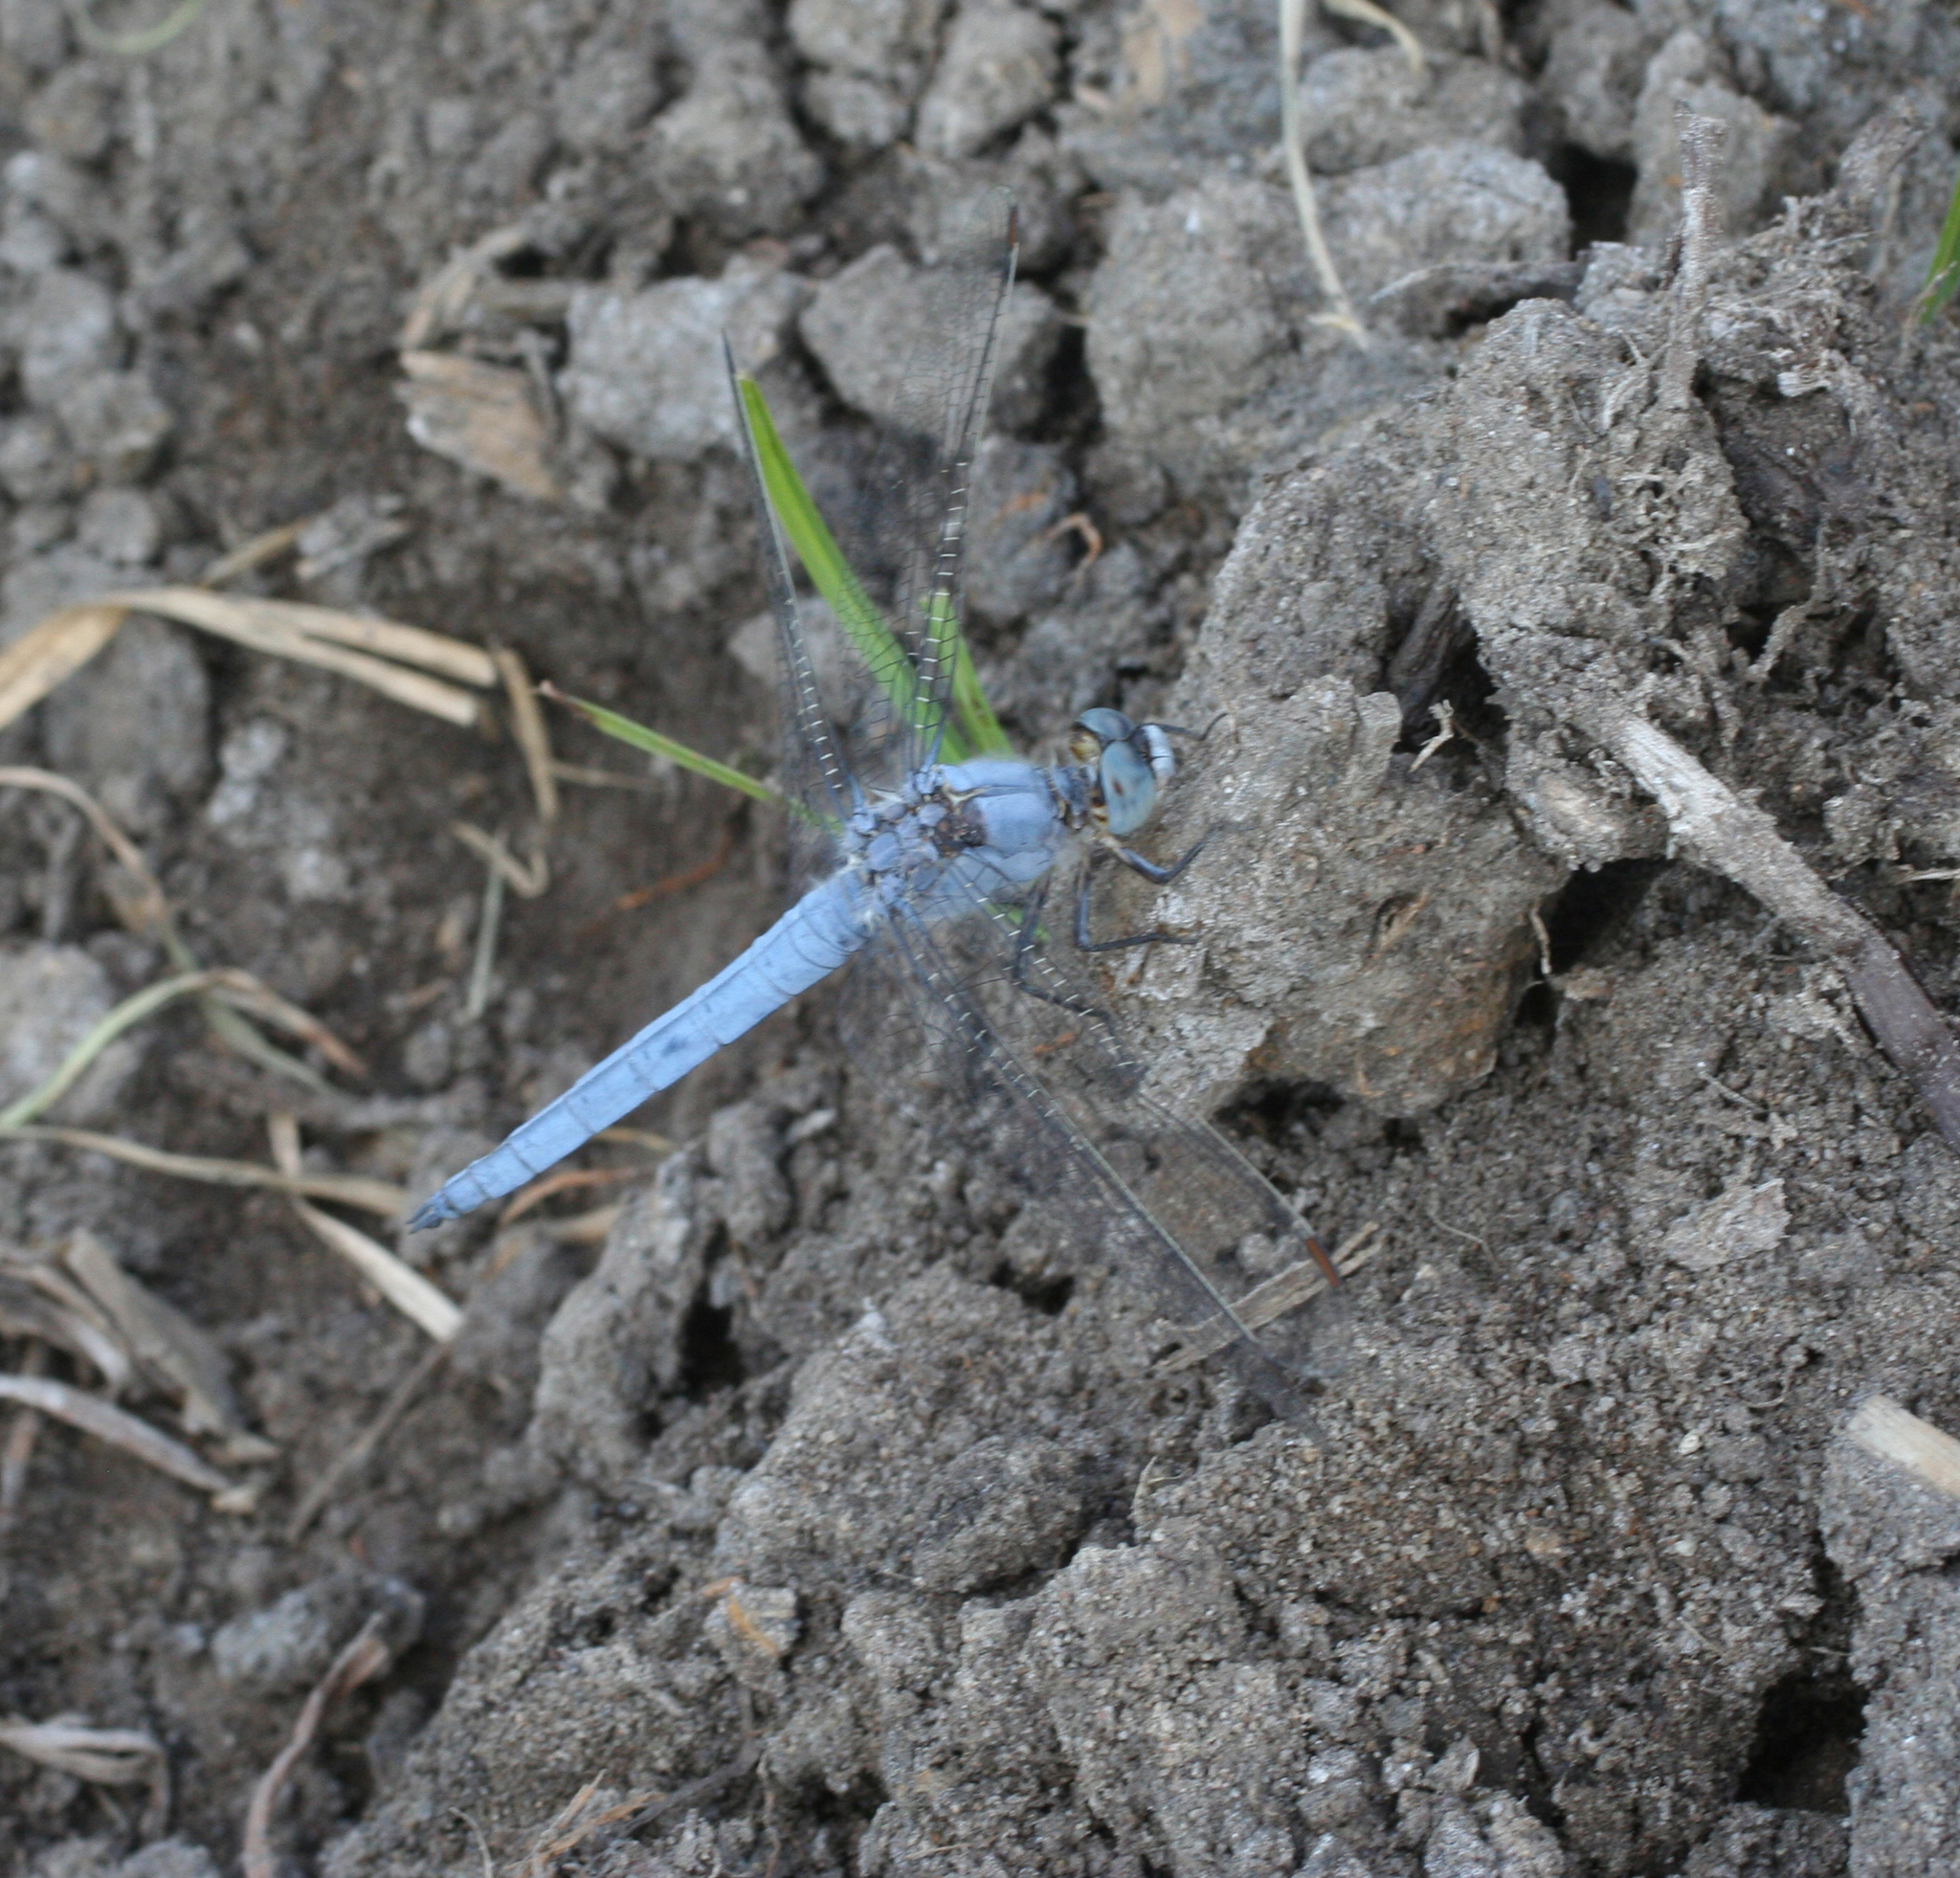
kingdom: Animalia
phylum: Arthropoda
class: Insecta
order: Odonata
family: Libellulidae
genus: Orthetrum
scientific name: Orthetrum brunneum
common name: Southern skimmer
